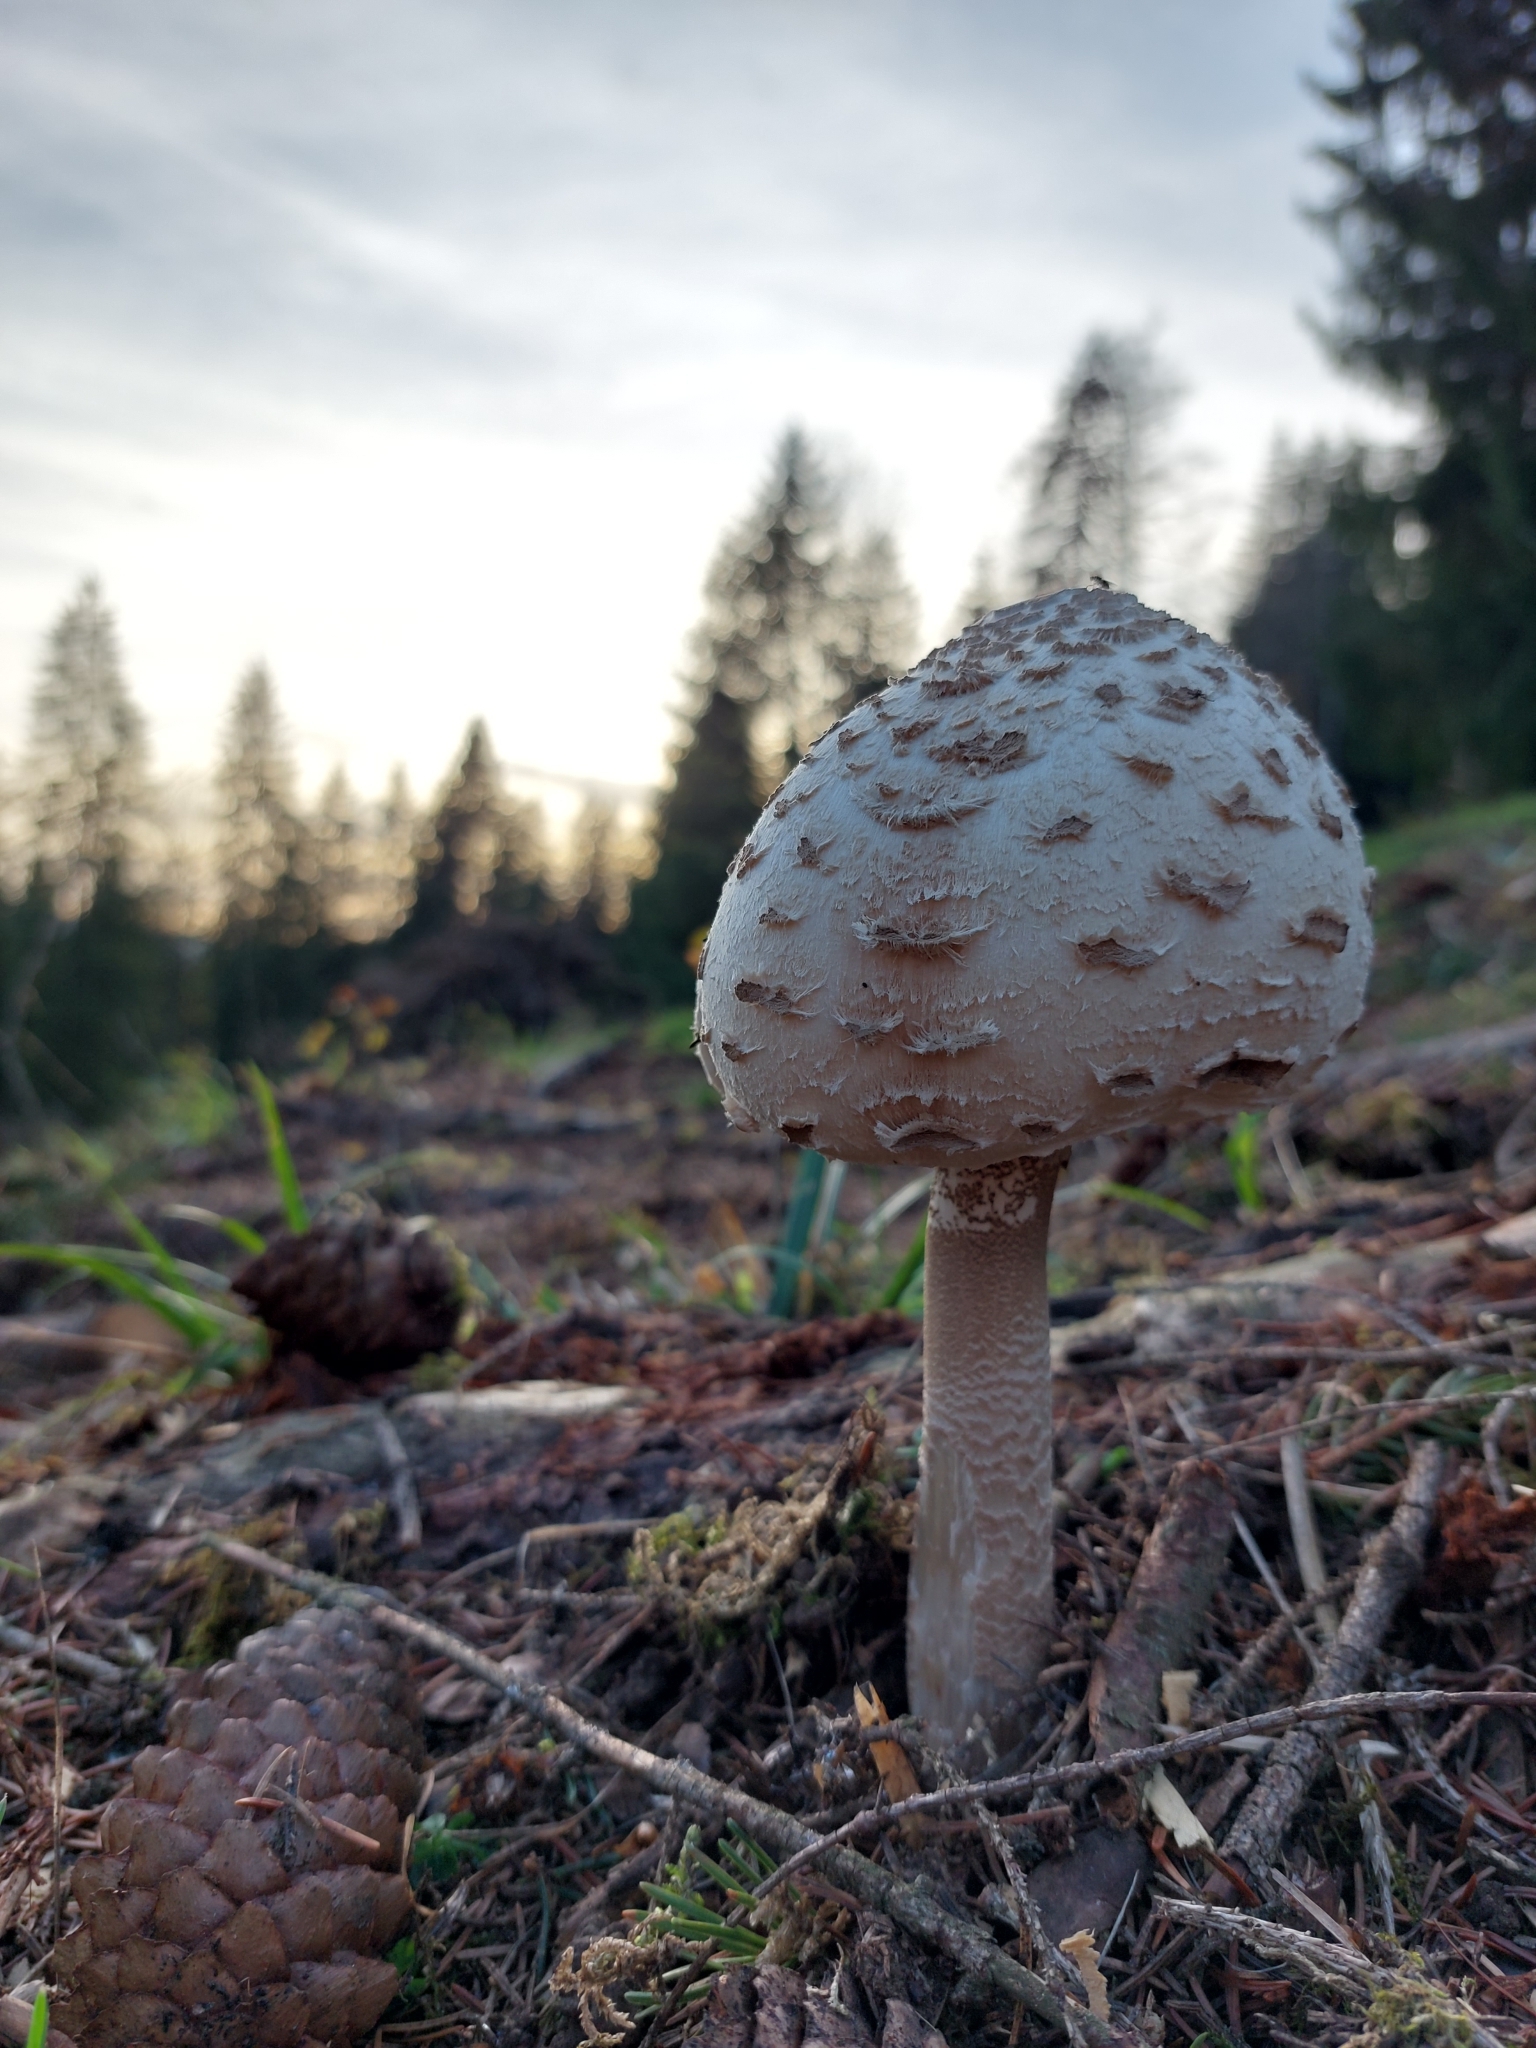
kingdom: Fungi
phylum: Basidiomycota
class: Agaricomycetes
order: Agaricales
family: Agaricaceae
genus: Macrolepiota
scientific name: Macrolepiota procera
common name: Parasol
